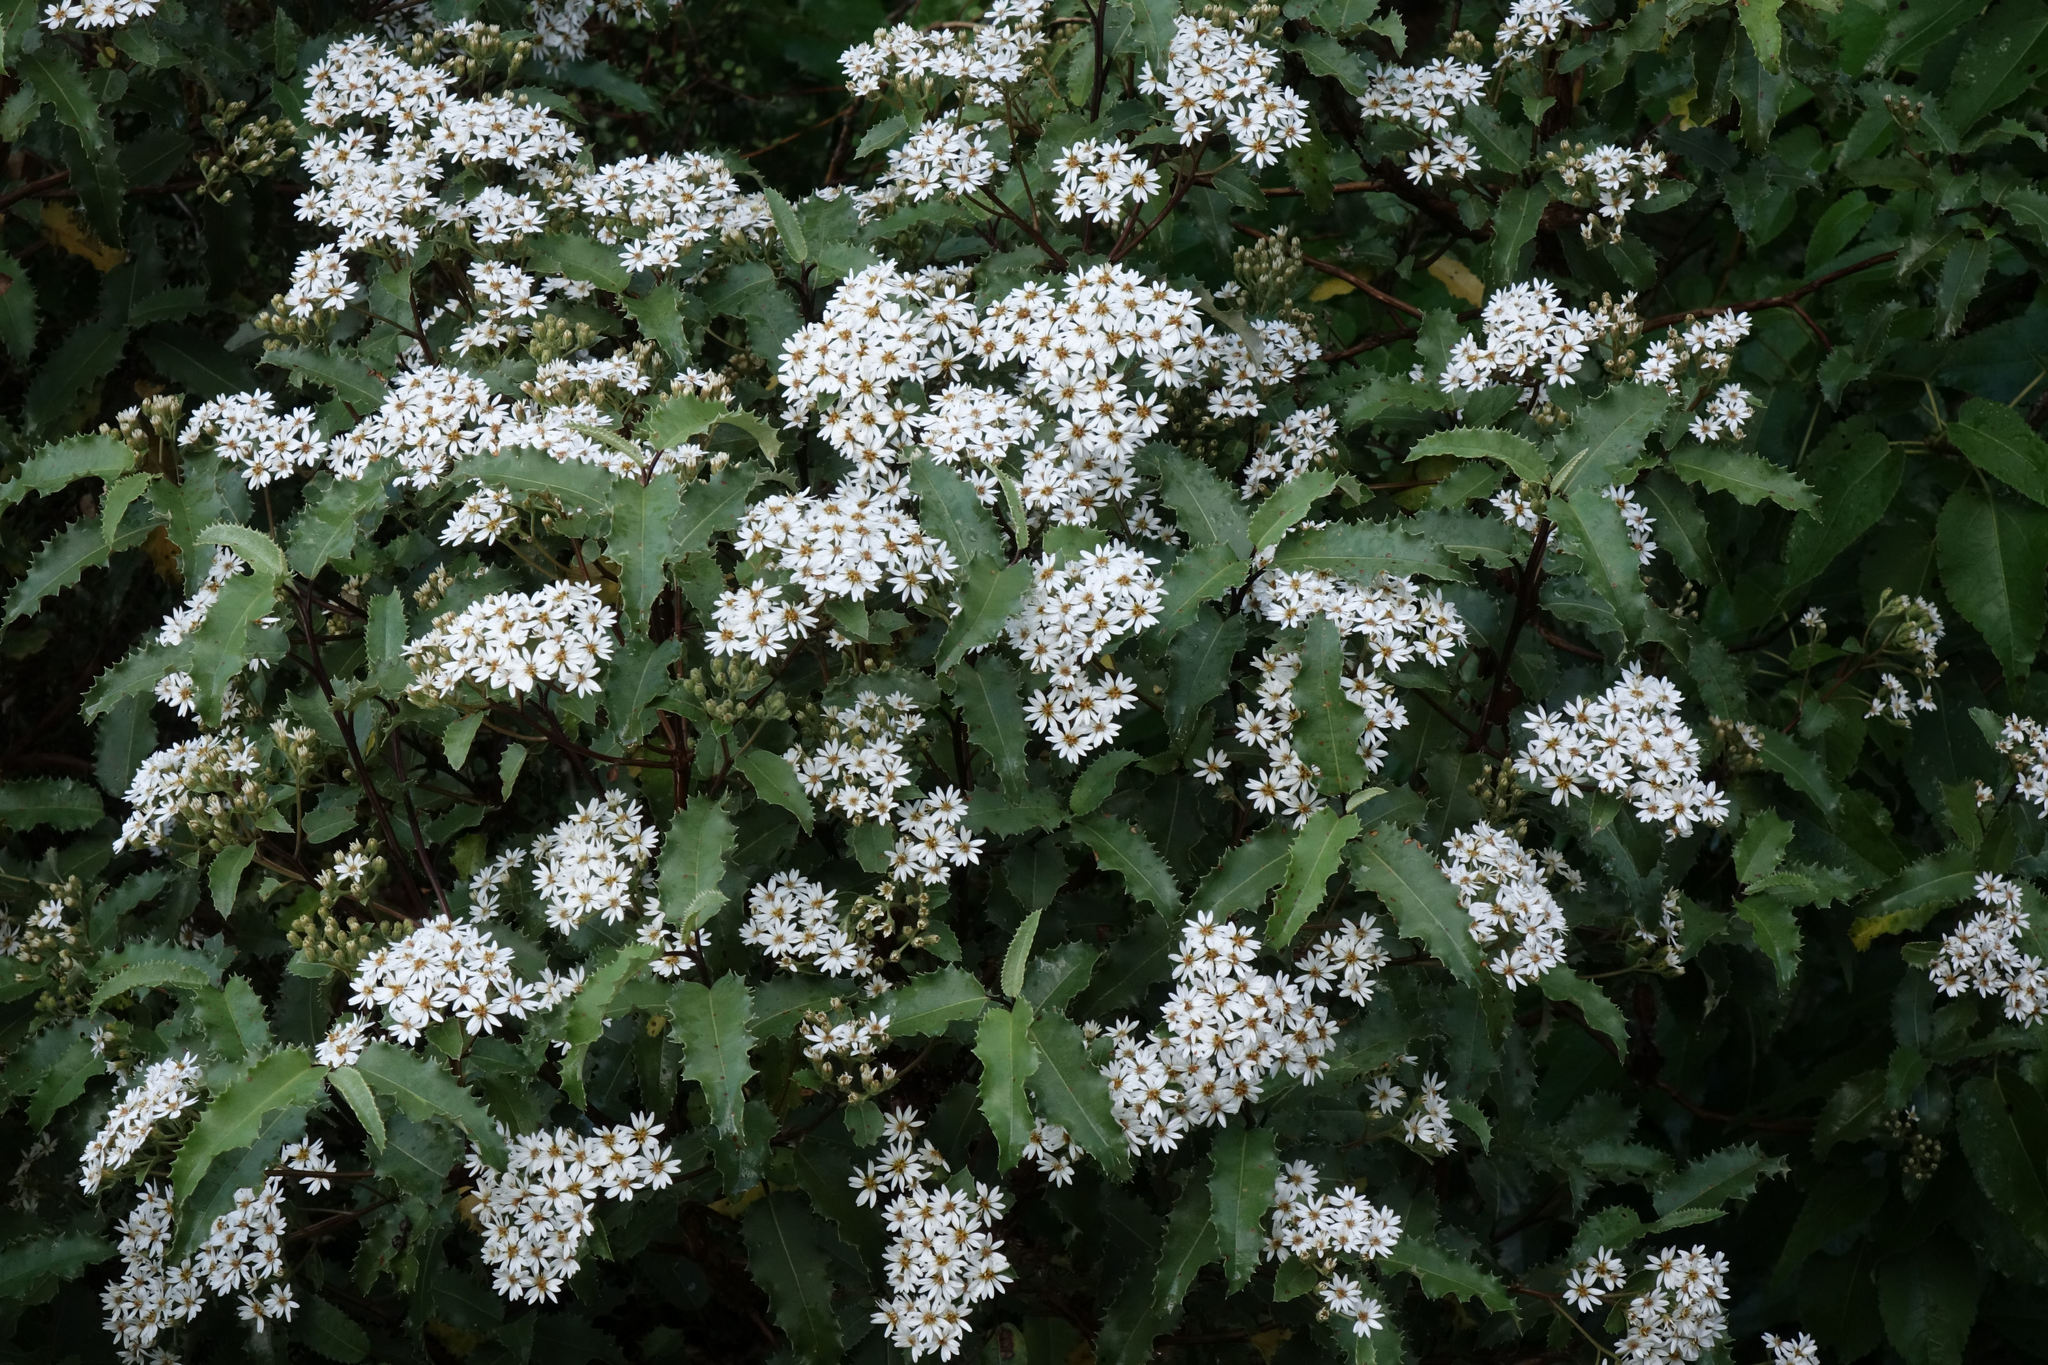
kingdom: Plantae
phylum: Tracheophyta
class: Magnoliopsida
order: Asterales
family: Asteraceae
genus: Olearia
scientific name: Olearia ilicifolia
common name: Maori-holly
